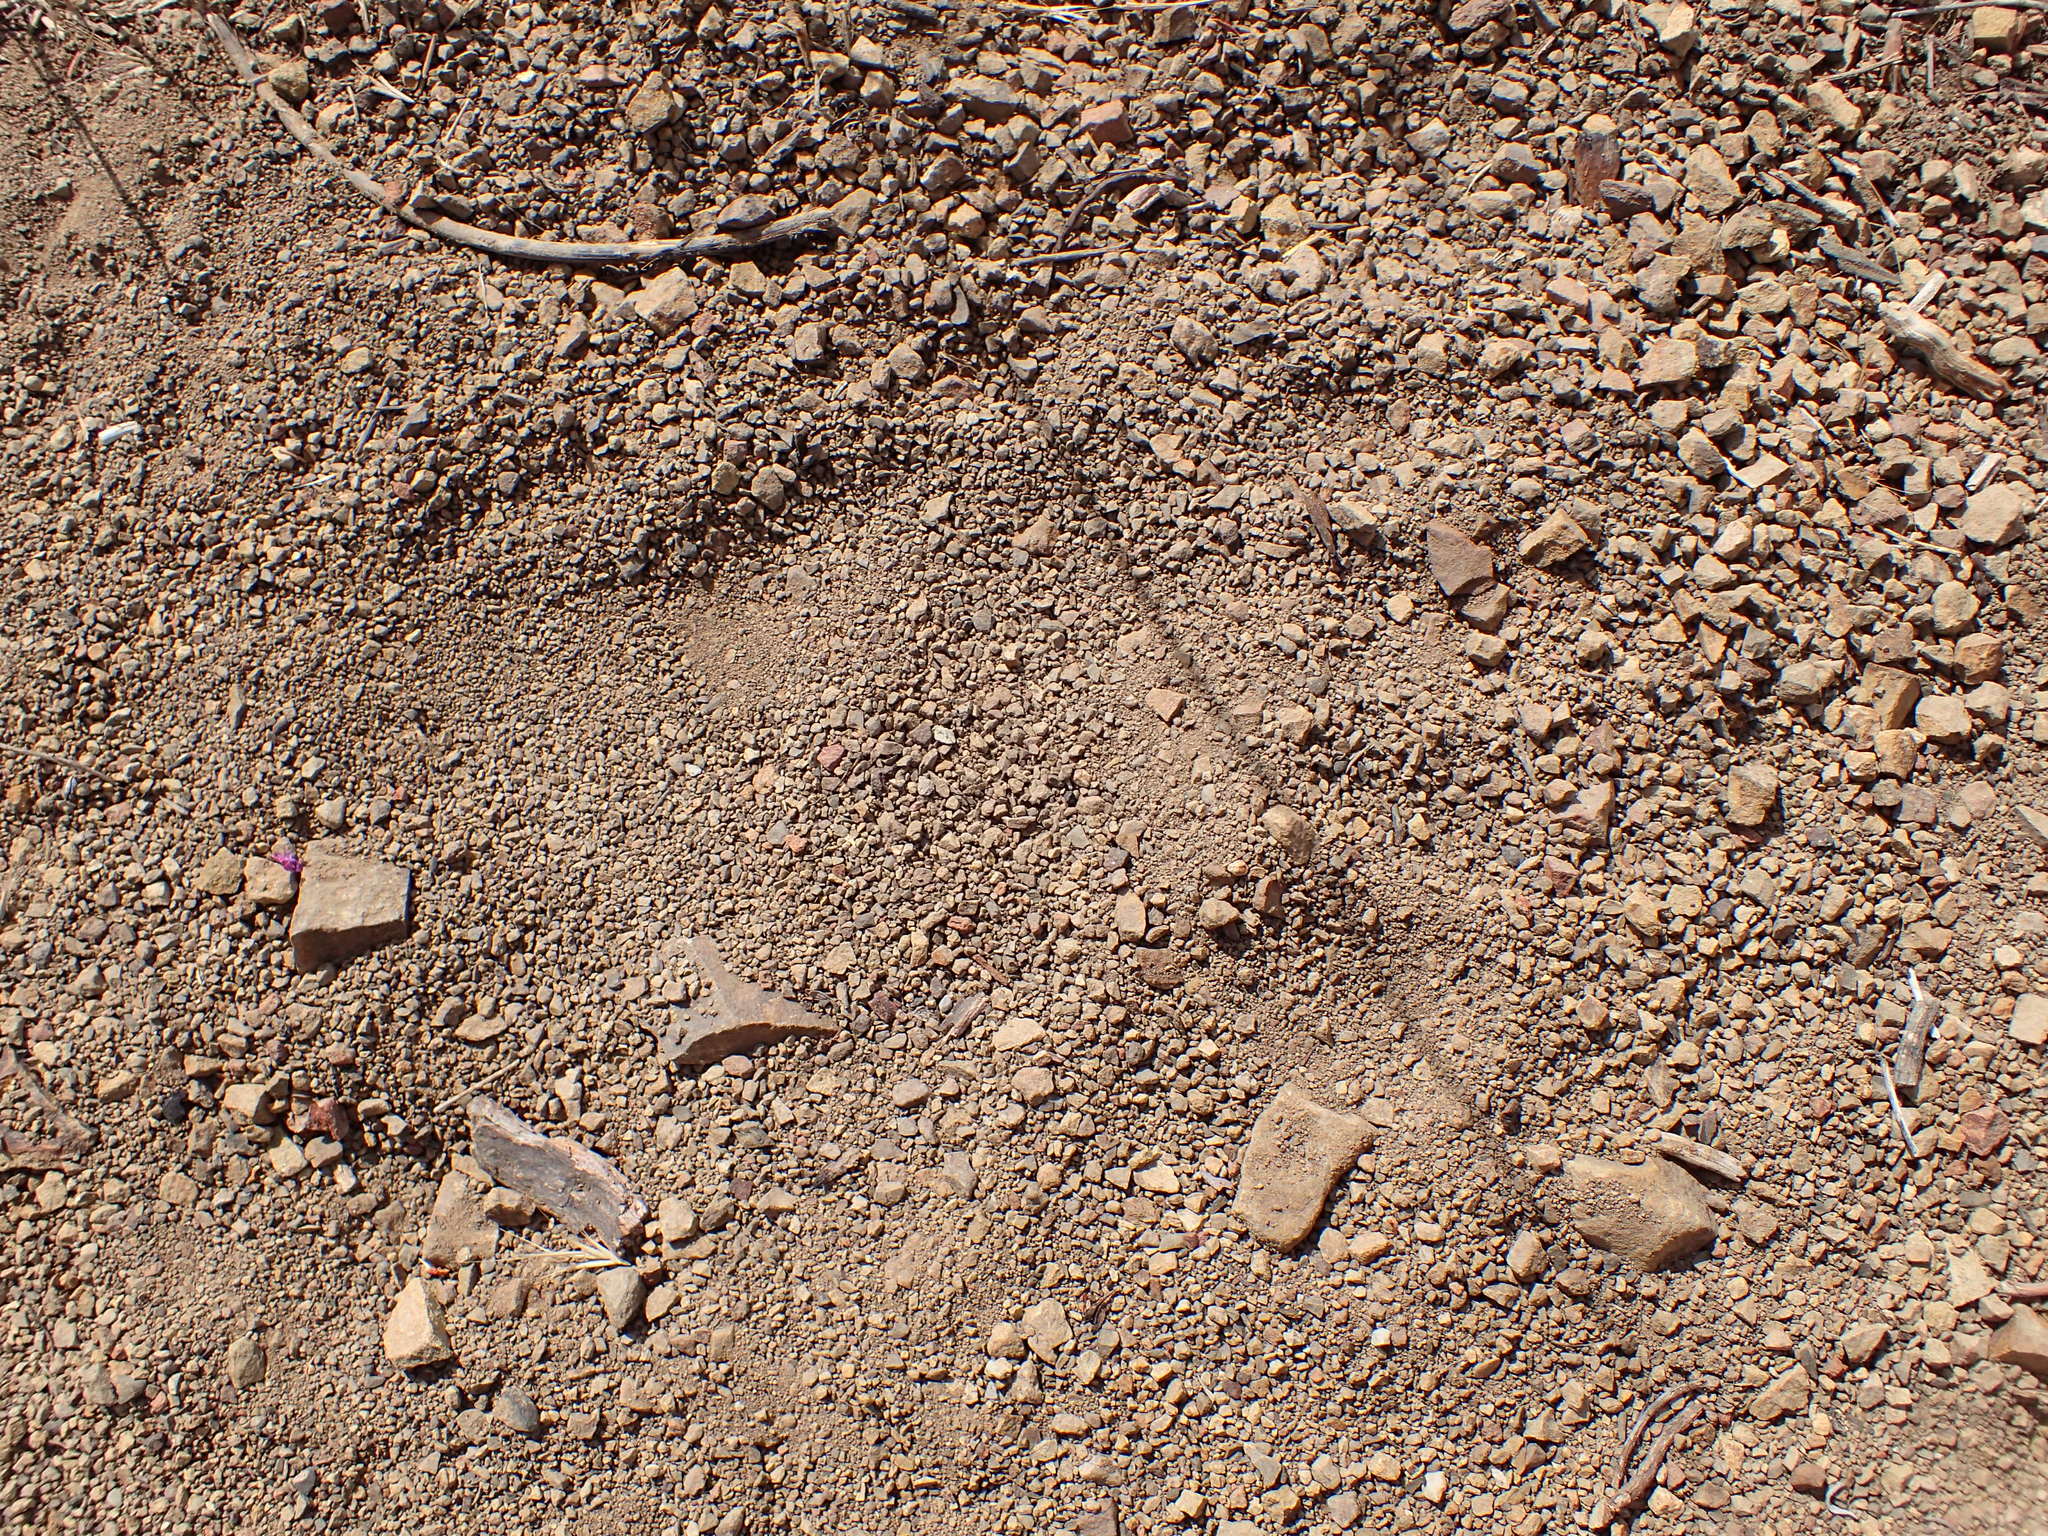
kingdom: Animalia
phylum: Chordata
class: Mammalia
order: Carnivora
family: Ursidae
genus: Ursus
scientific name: Ursus americanus
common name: American black bear
